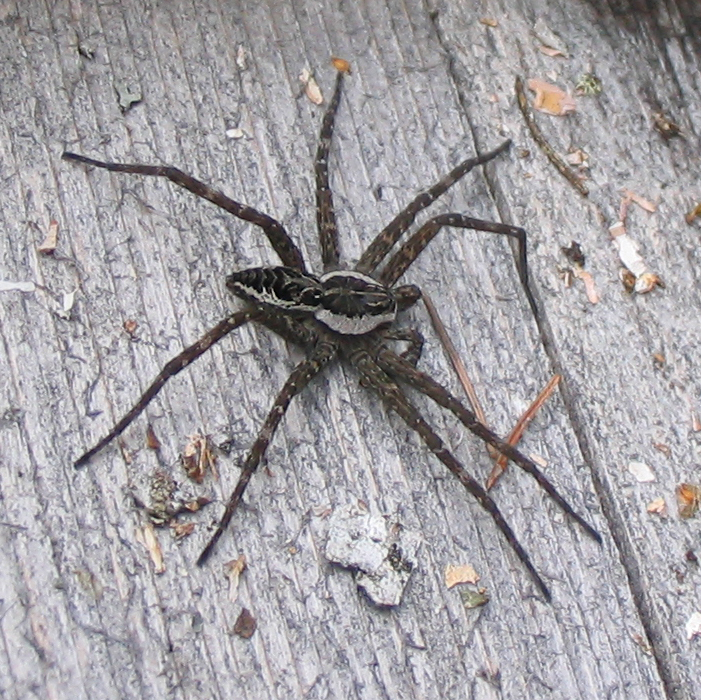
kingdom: Animalia
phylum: Arthropoda
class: Arachnida
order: Araneae
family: Pisauridae
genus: Dolomedes
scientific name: Dolomedes scriptus
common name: Striped fishing spider
